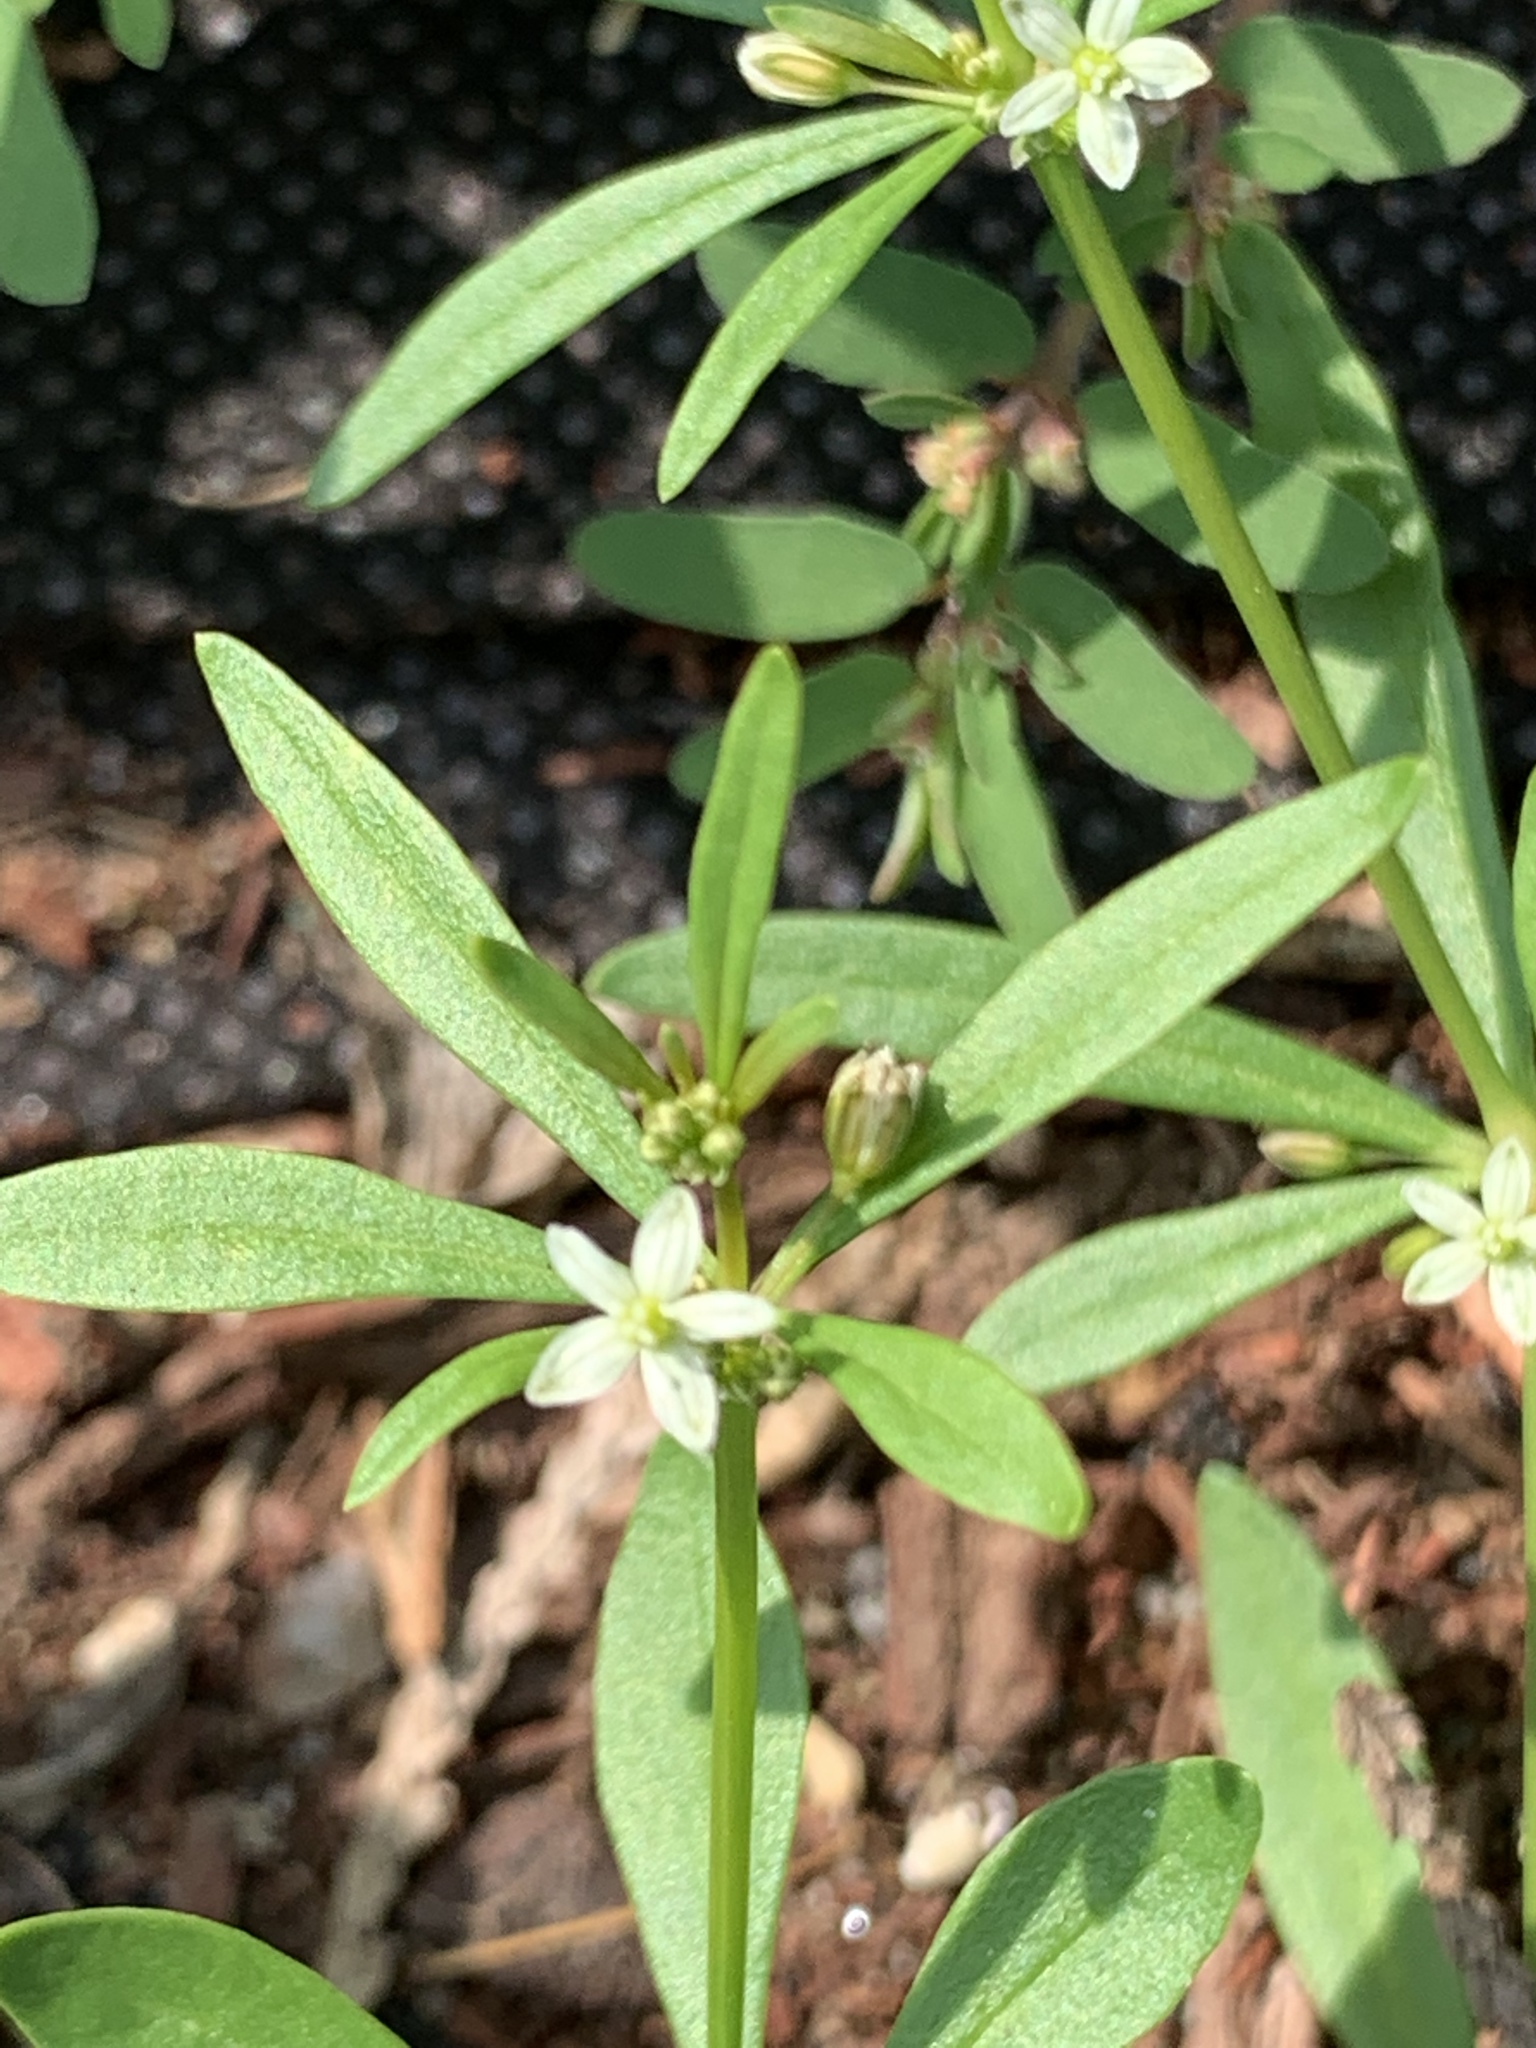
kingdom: Plantae
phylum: Tracheophyta
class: Magnoliopsida
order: Caryophyllales
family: Molluginaceae
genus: Mollugo
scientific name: Mollugo verticillata
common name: Green carpetweed
